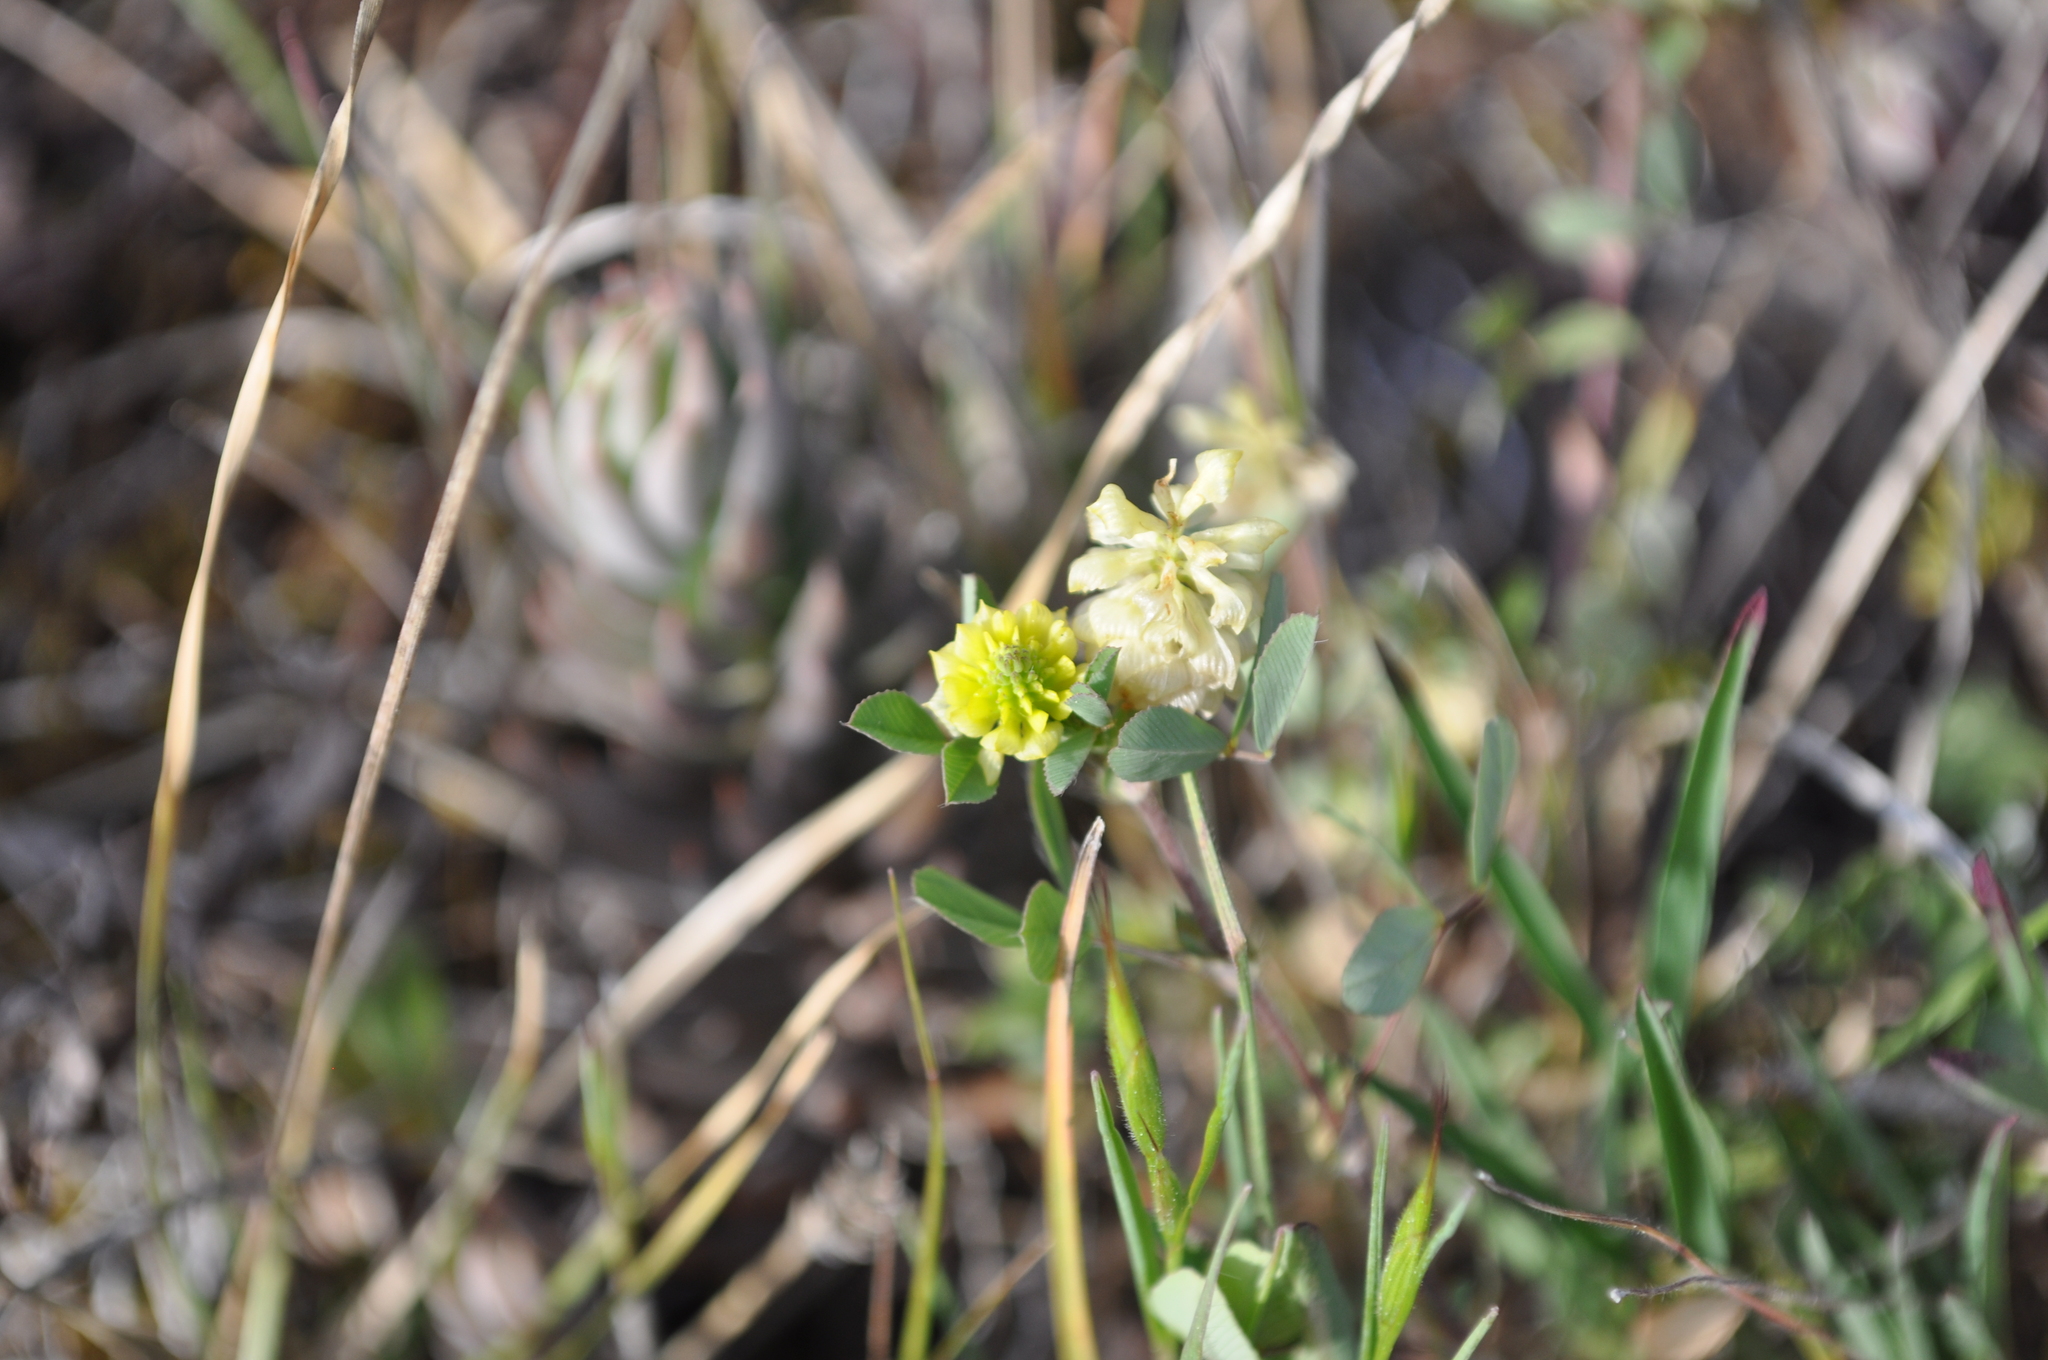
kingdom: Plantae
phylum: Tracheophyta
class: Magnoliopsida
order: Fabales
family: Fabaceae
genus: Trifolium
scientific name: Trifolium campestre
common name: Field clover
